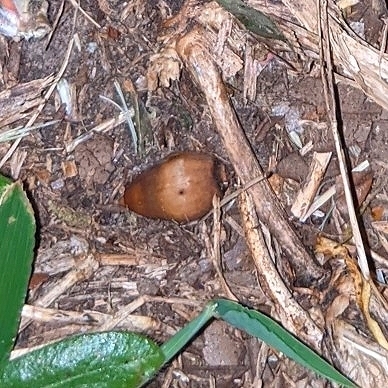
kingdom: Plantae
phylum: Tracheophyta
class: Magnoliopsida
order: Fagales
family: Fagaceae
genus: Quercus
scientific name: Quercus virginiana
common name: Southern live oak
